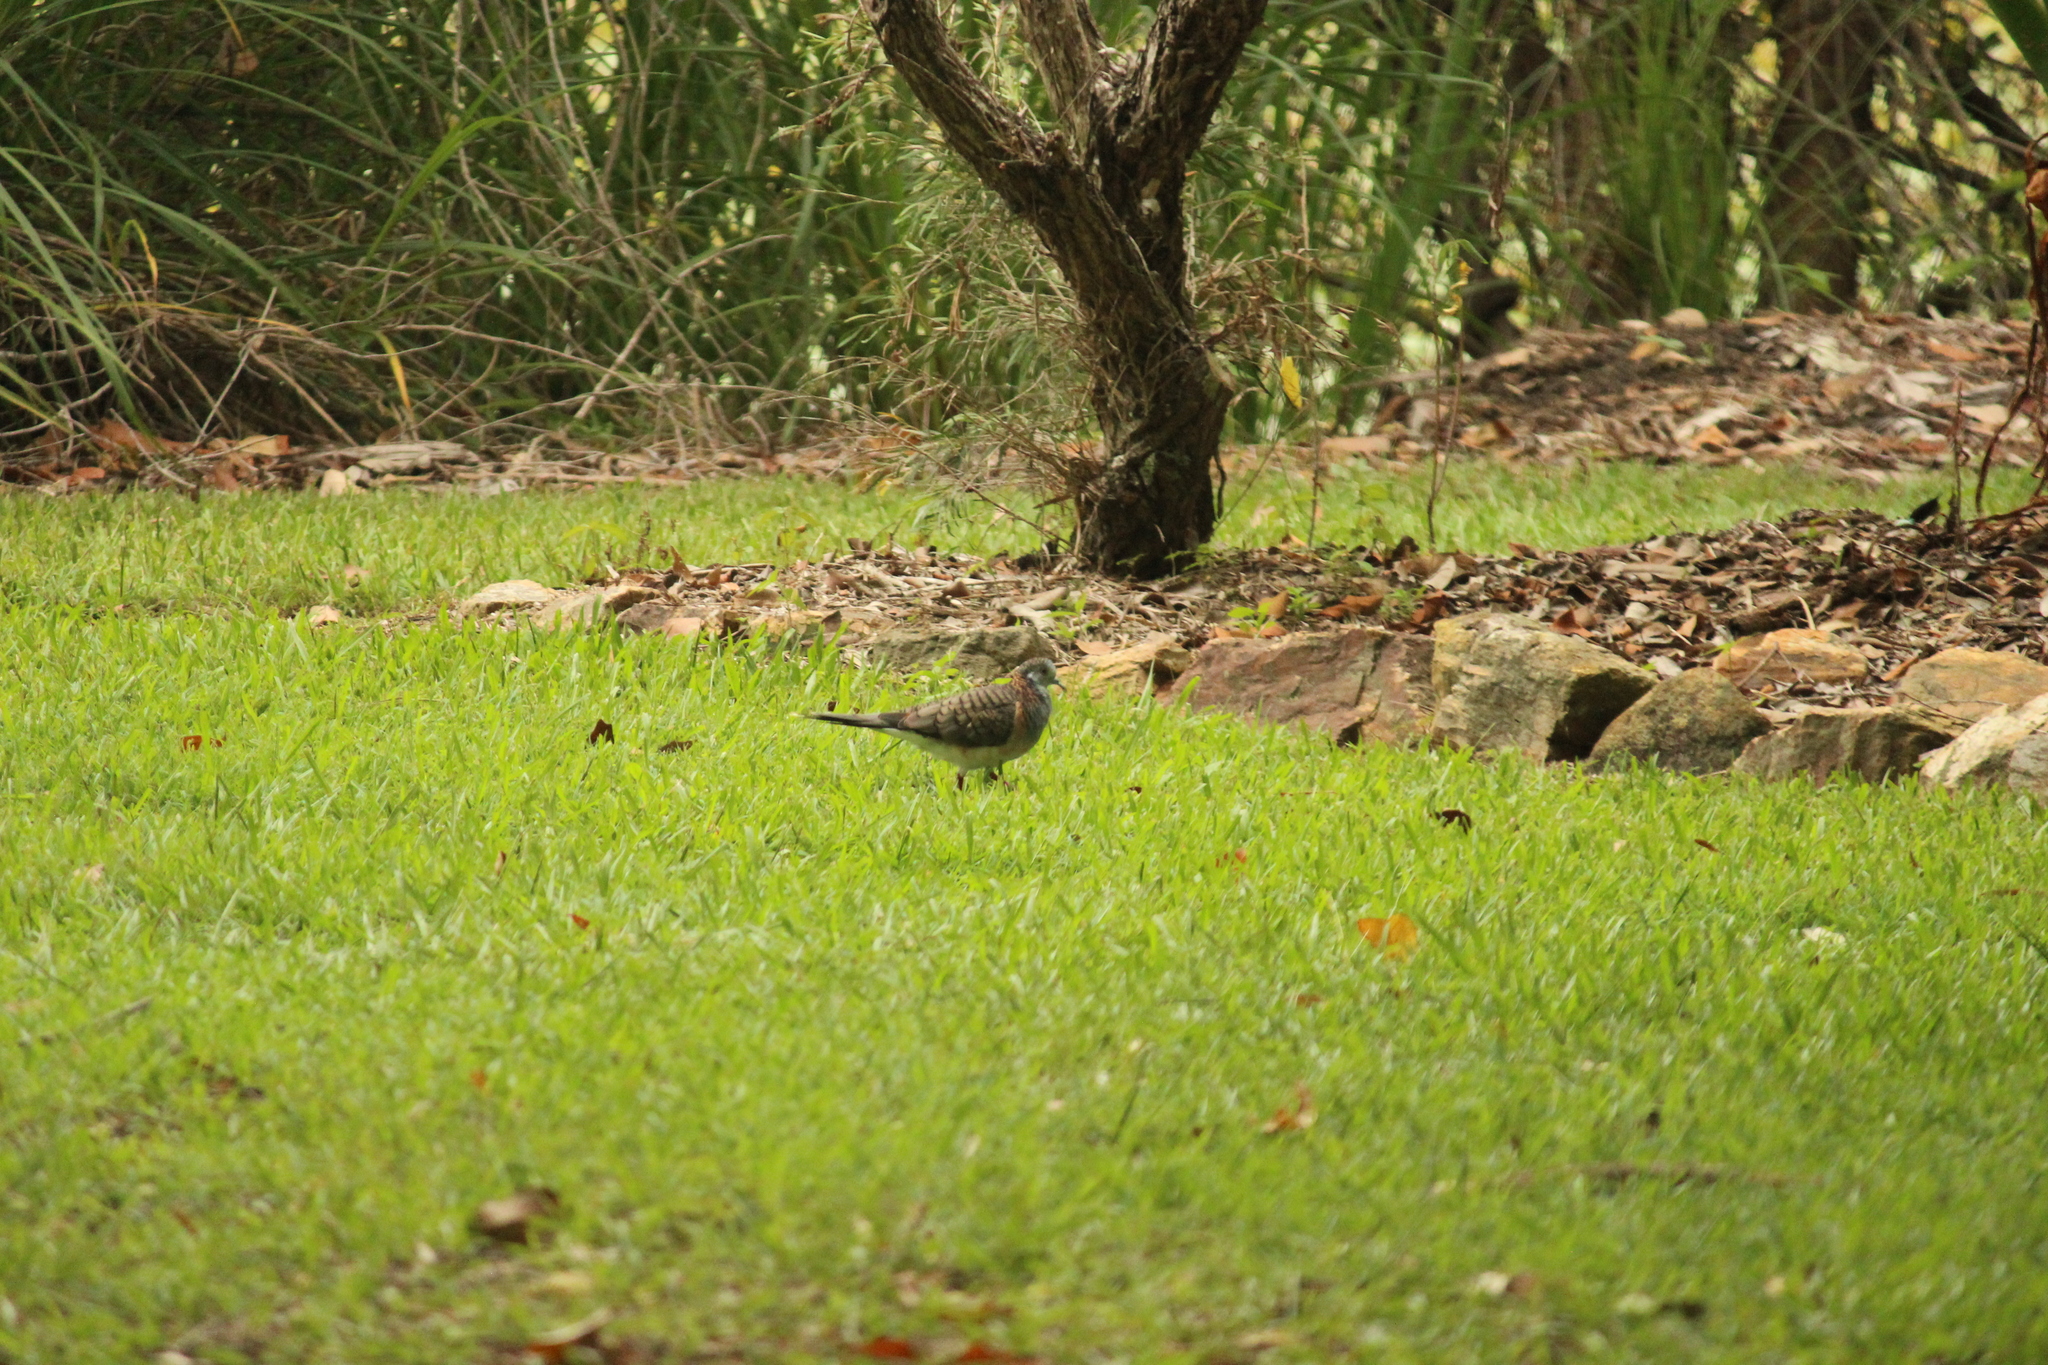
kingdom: Animalia
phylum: Chordata
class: Aves
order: Columbiformes
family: Columbidae
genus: Geopelia
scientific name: Geopelia humeralis
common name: Bar-shouldered dove
